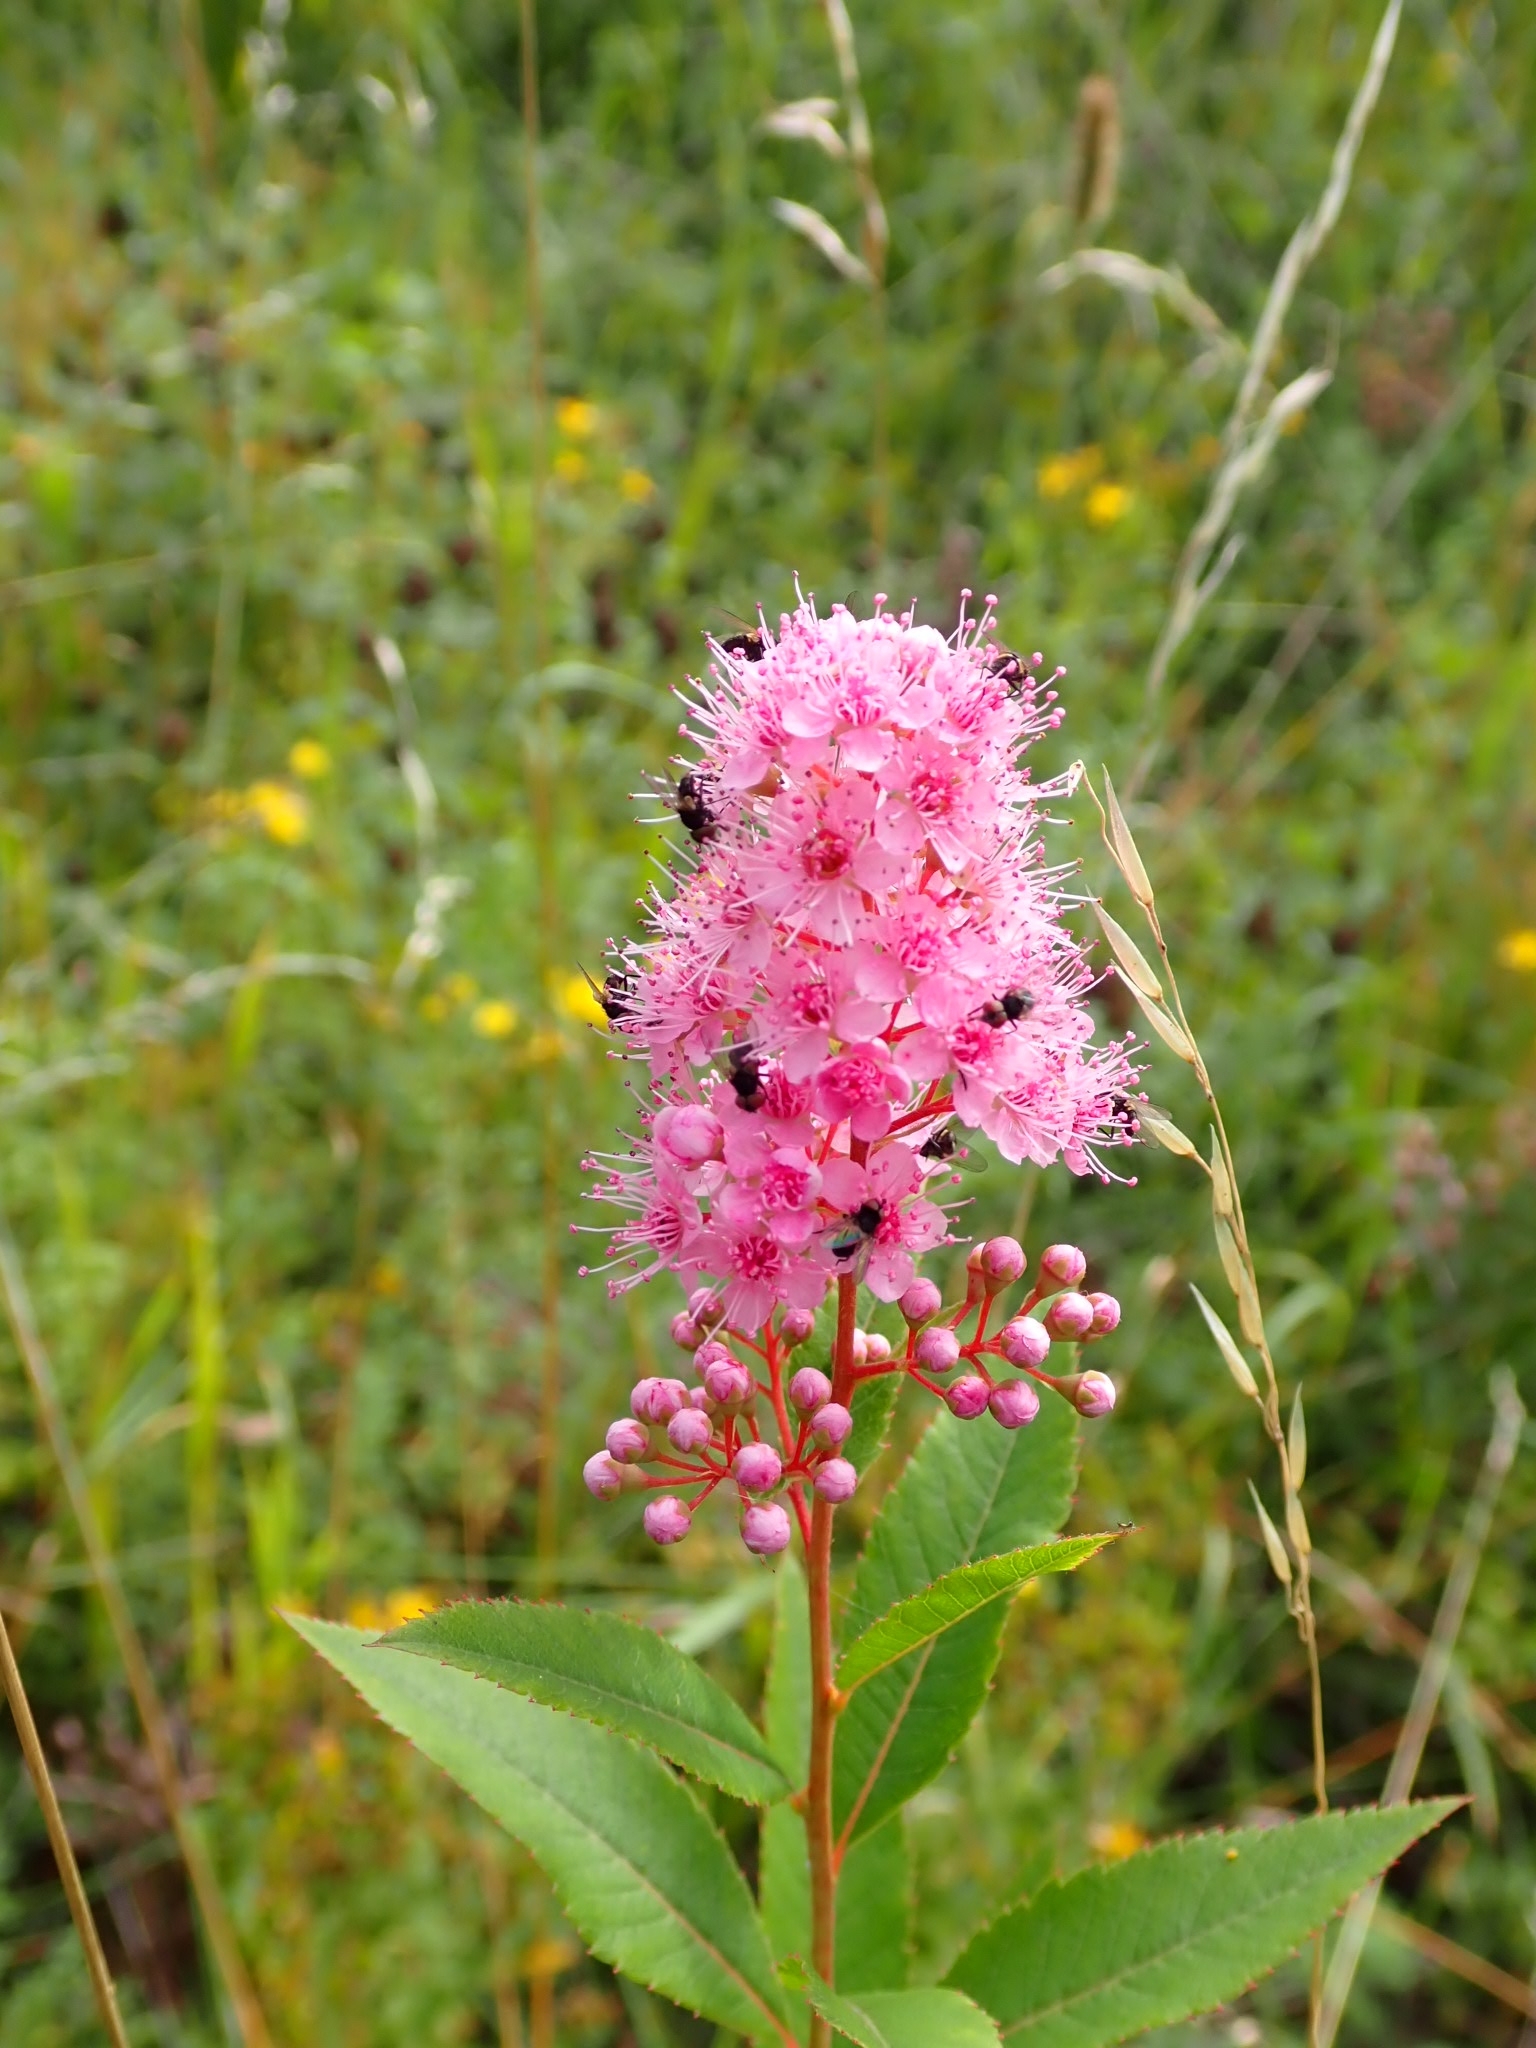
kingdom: Plantae
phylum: Tracheophyta
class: Magnoliopsida
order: Rosales
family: Rosaceae
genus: Spiraea
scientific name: Spiraea salicifolia
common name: Bridewort
